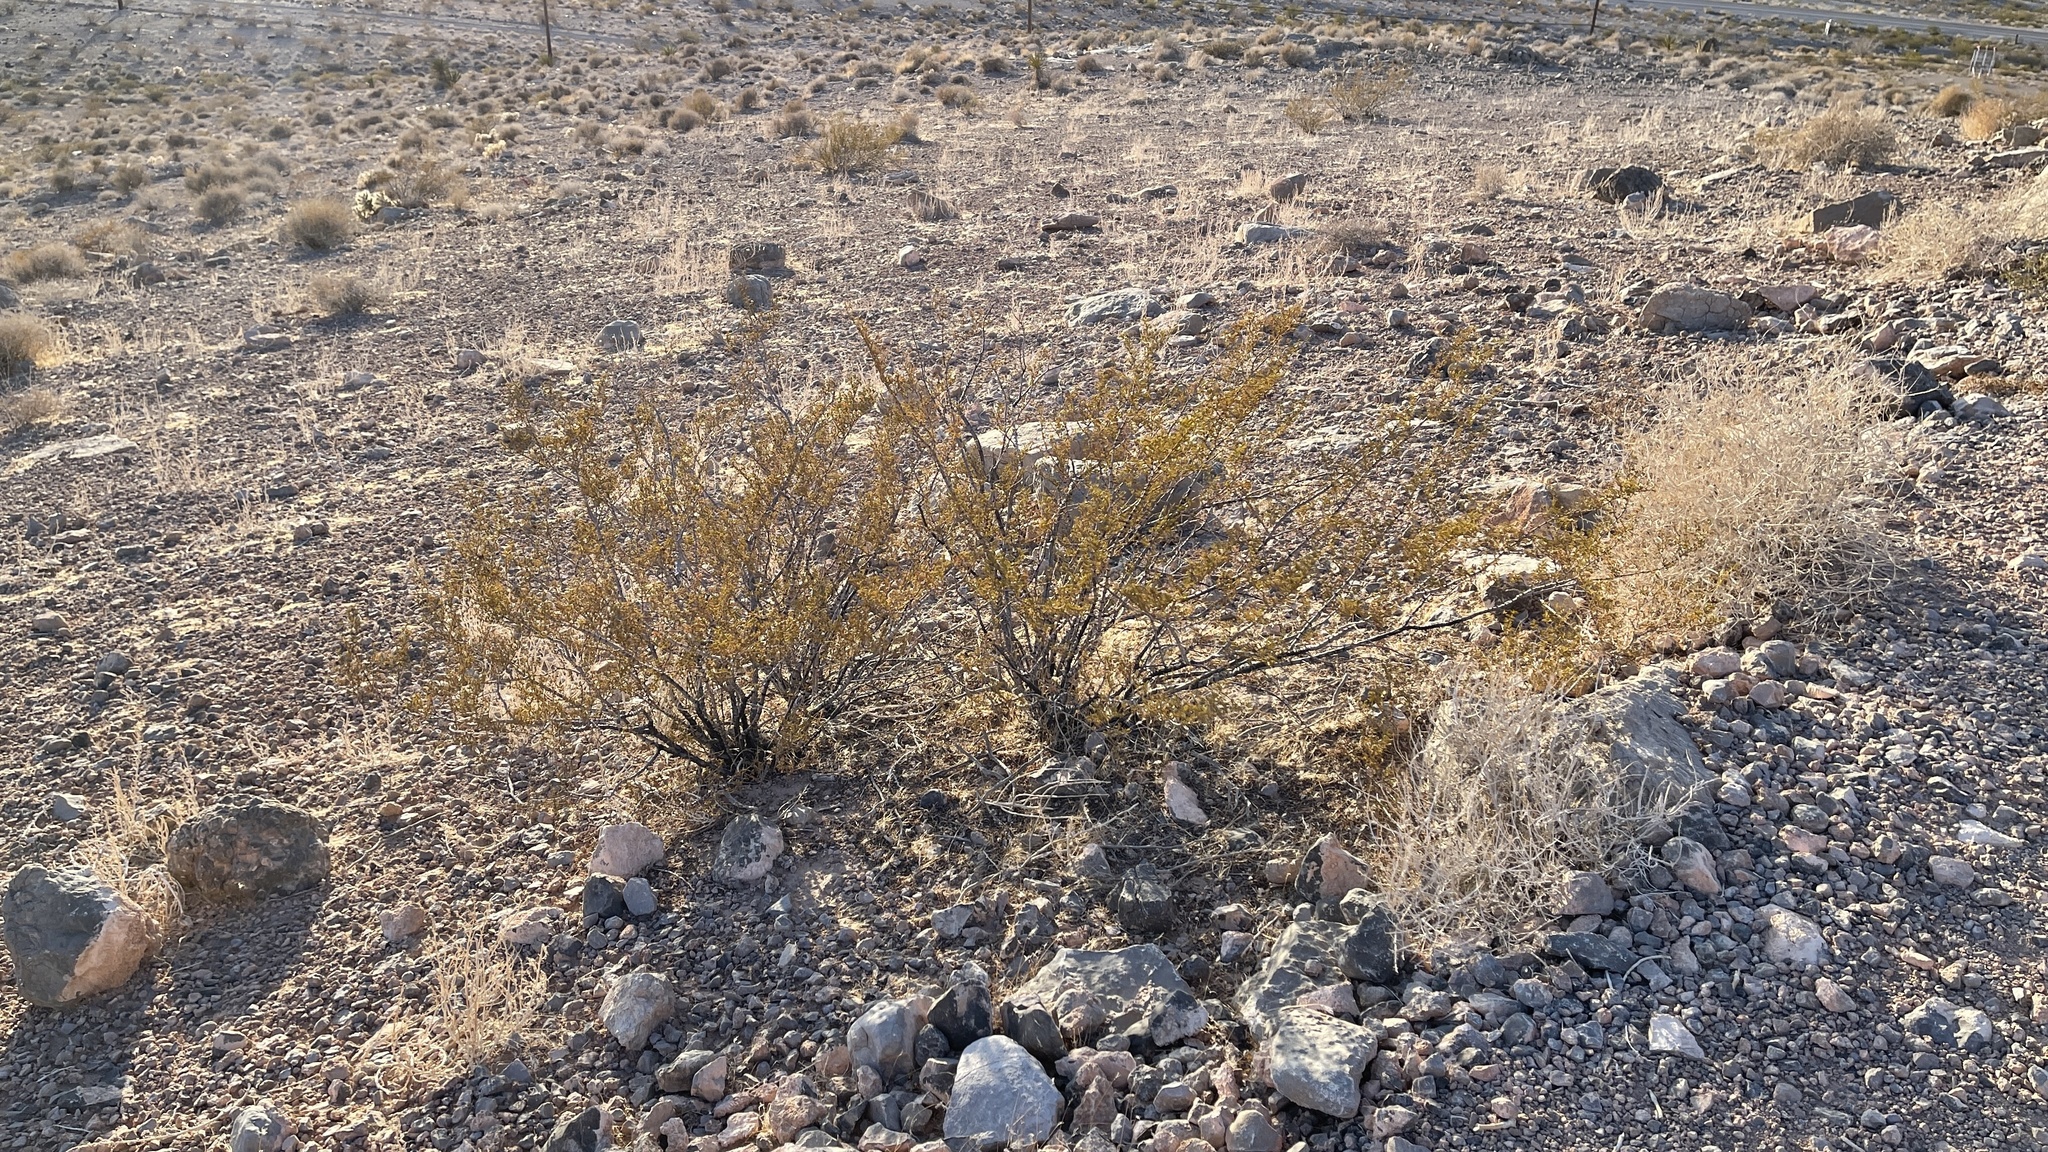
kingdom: Plantae
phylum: Tracheophyta
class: Magnoliopsida
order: Zygophyllales
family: Zygophyllaceae
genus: Larrea
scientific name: Larrea tridentata
